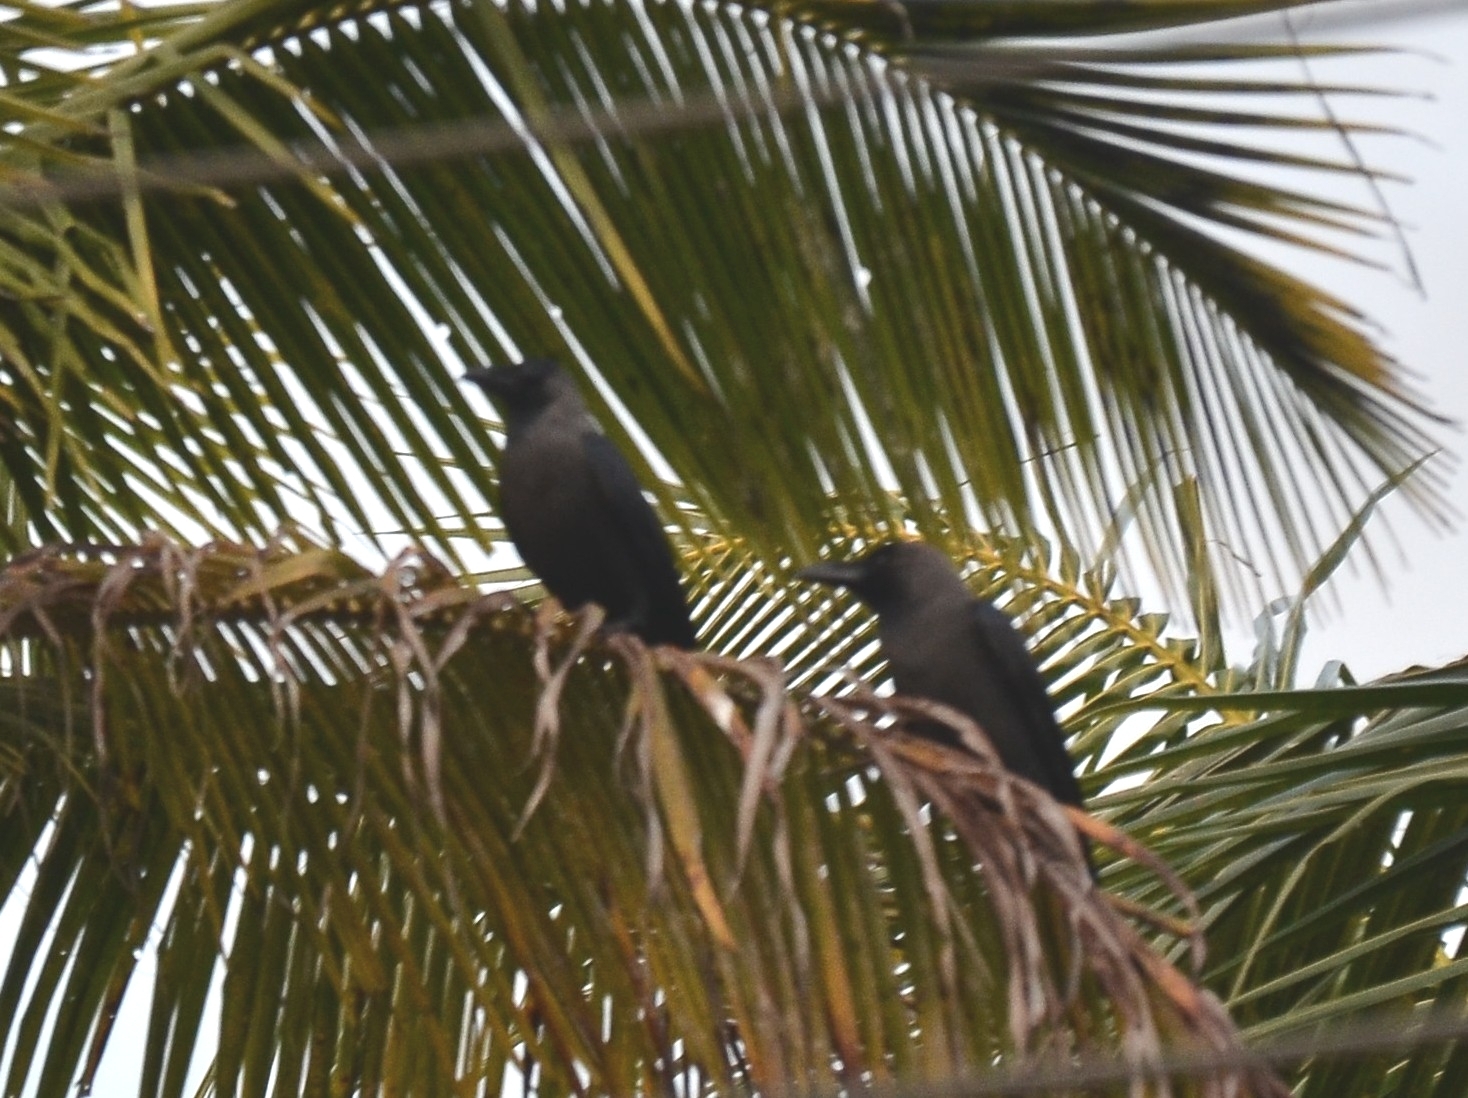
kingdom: Animalia
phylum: Chordata
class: Aves
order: Passeriformes
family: Corvidae
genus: Corvus
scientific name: Corvus splendens
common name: House crow
